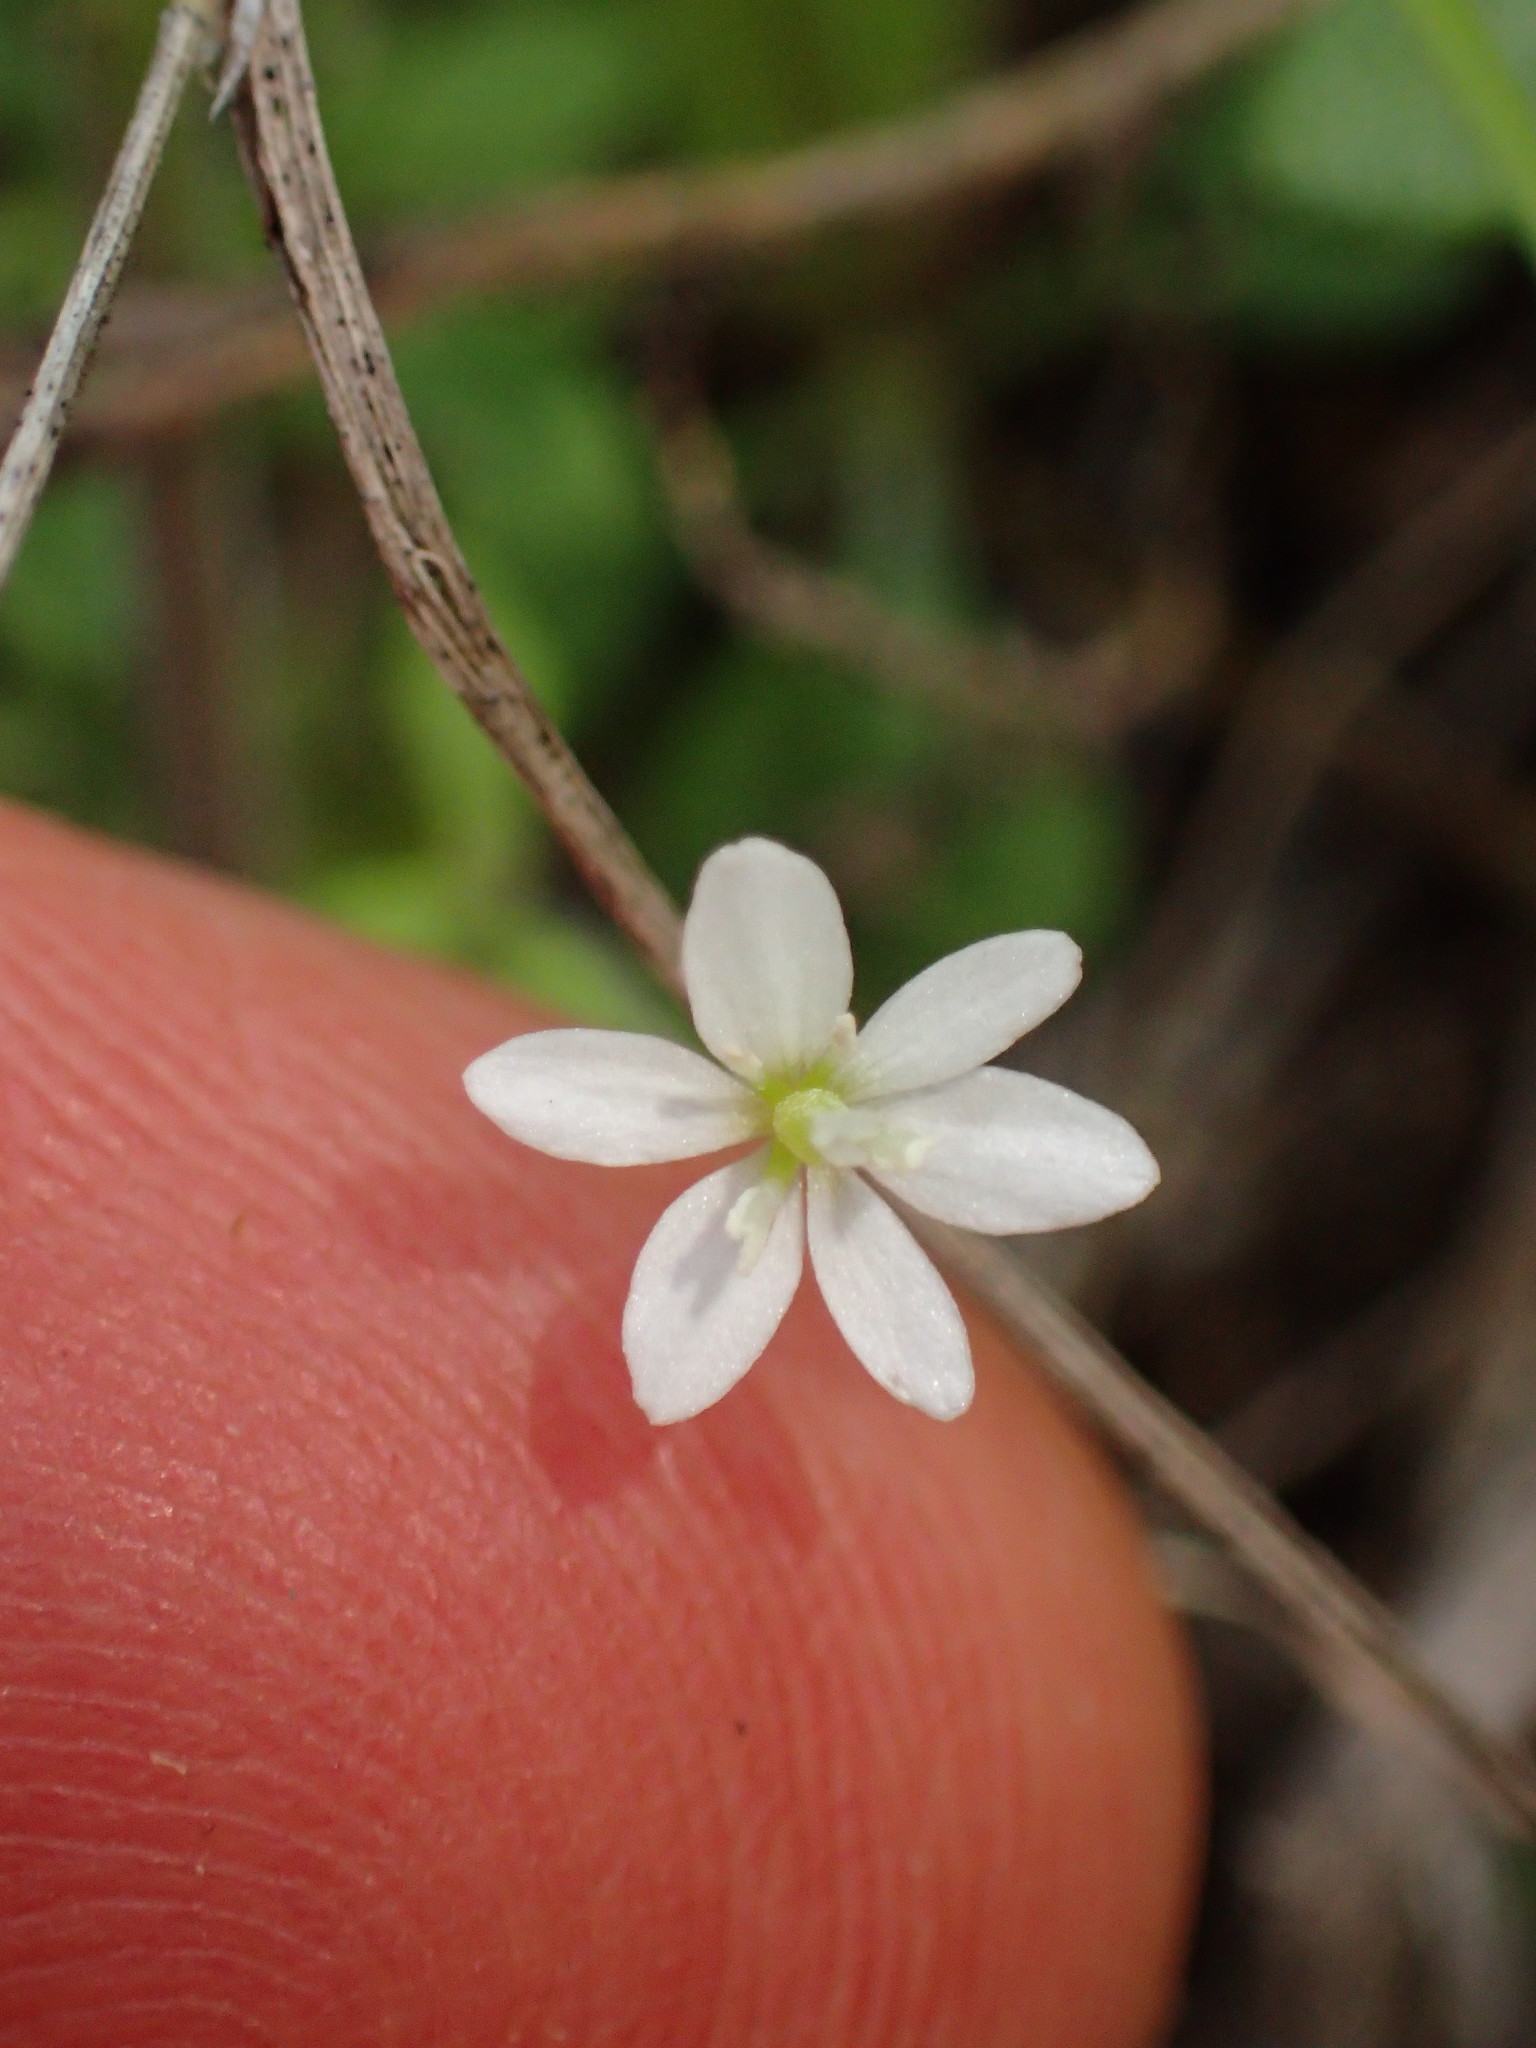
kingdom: Plantae
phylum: Tracheophyta
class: Magnoliopsida
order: Ranunculales
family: Papaveraceae
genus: Meconella
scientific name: Meconella denticulata
